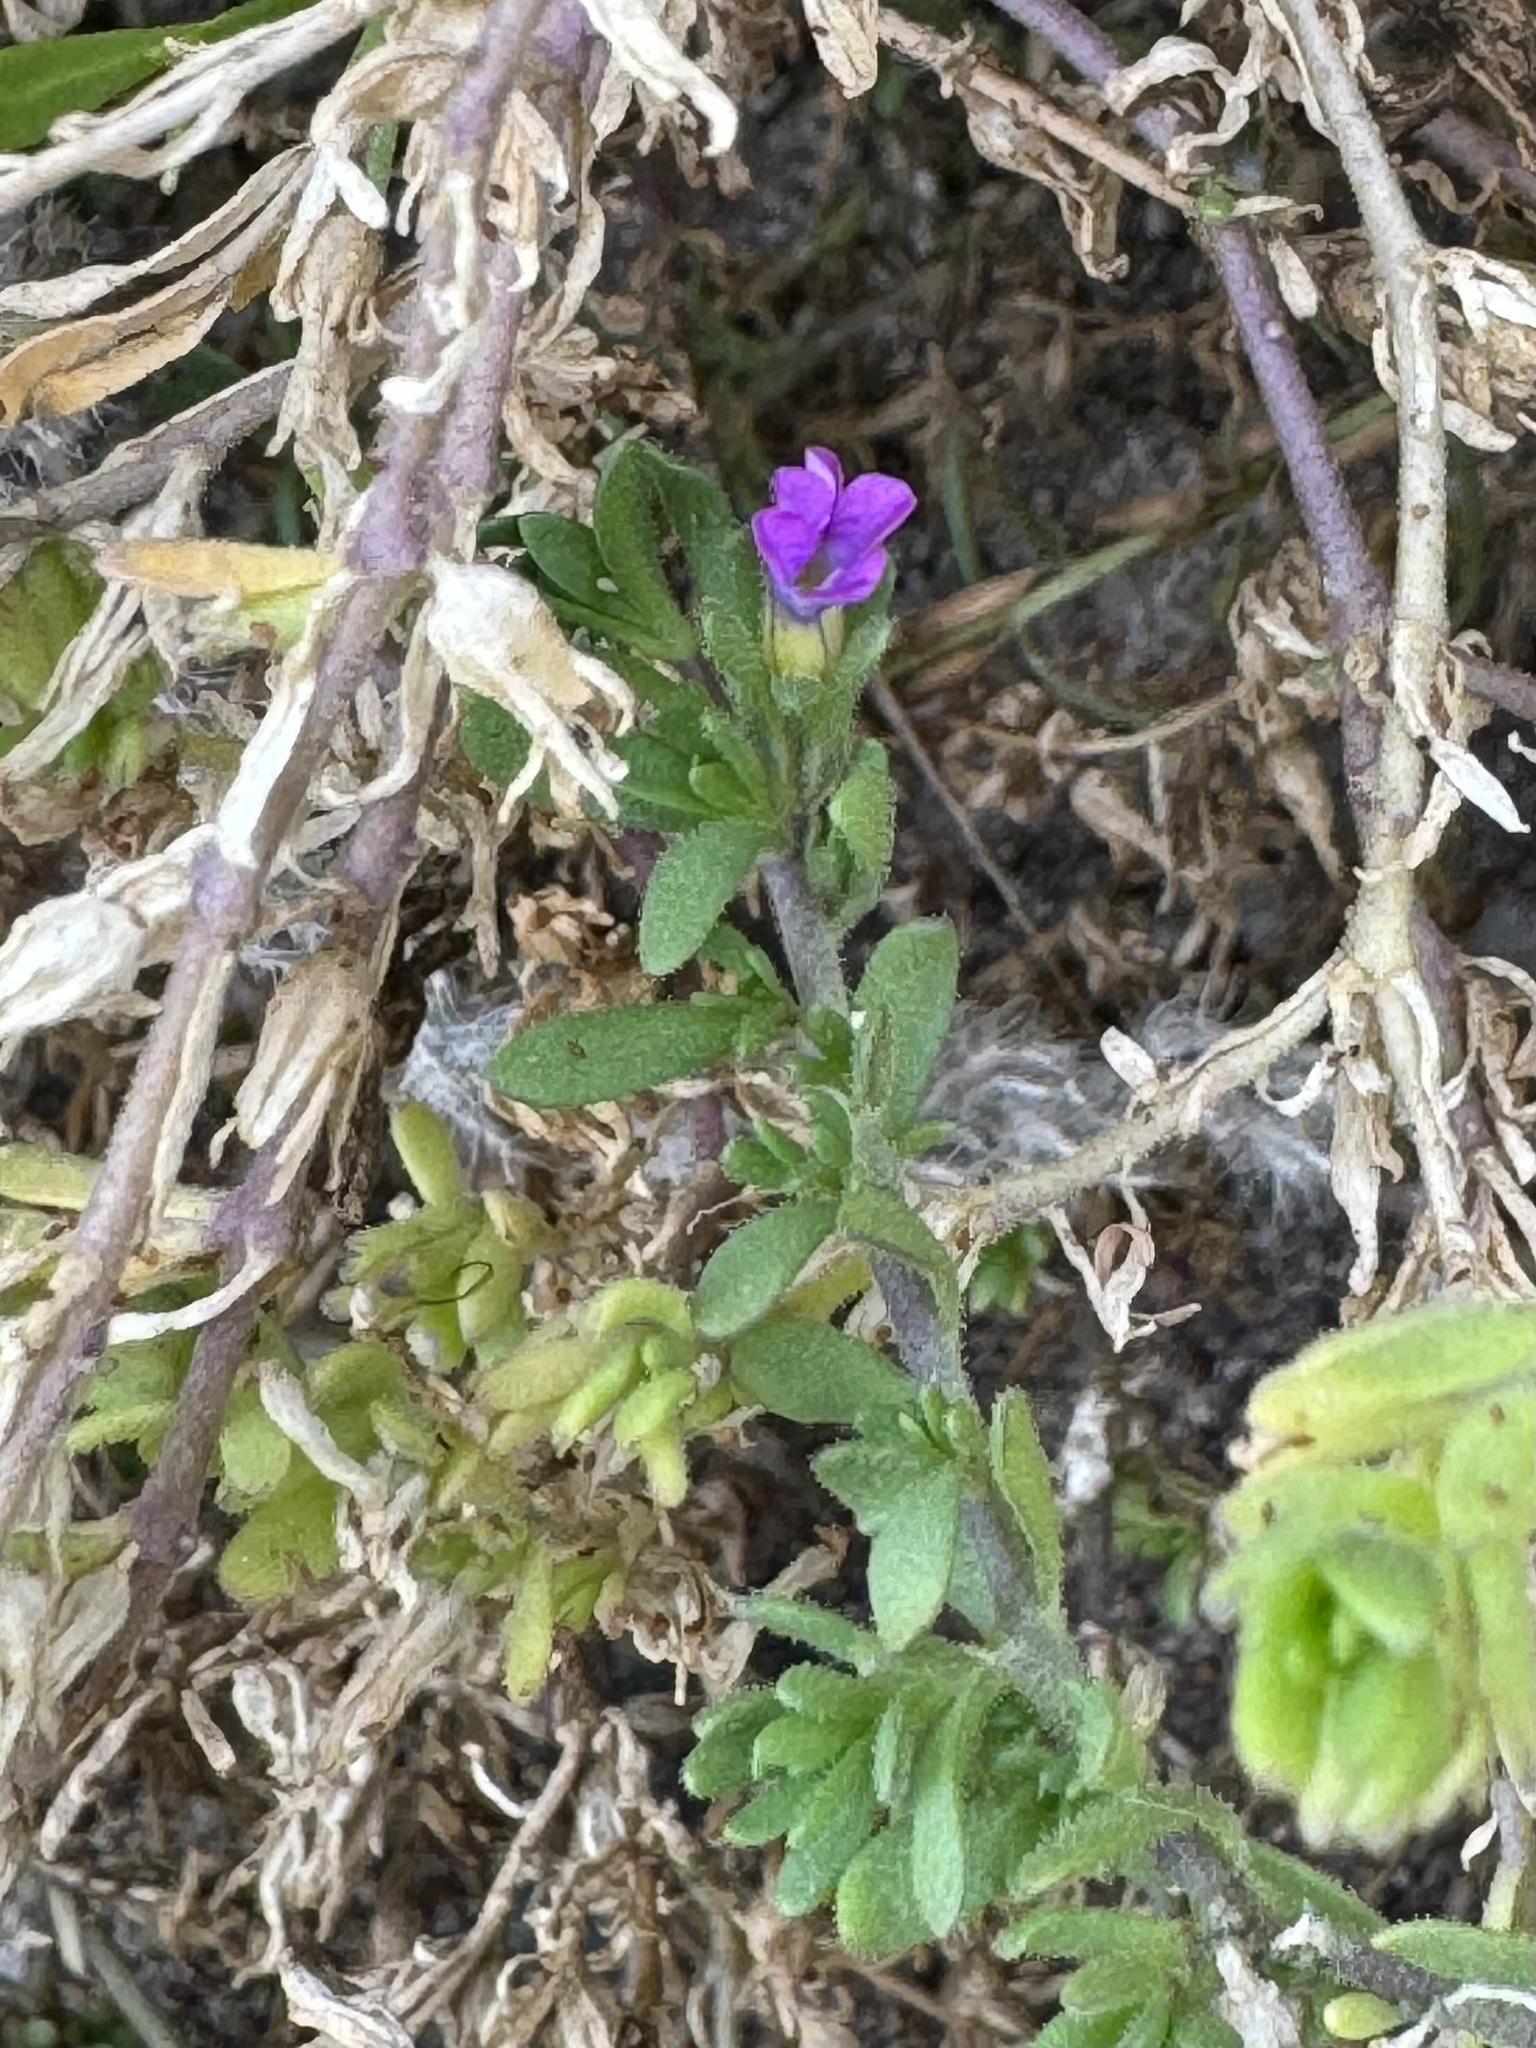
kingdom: Plantae
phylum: Tracheophyta
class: Magnoliopsida
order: Solanales
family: Solanaceae
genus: Calibrachoa
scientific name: Calibrachoa parviflora
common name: Seaside petunia
